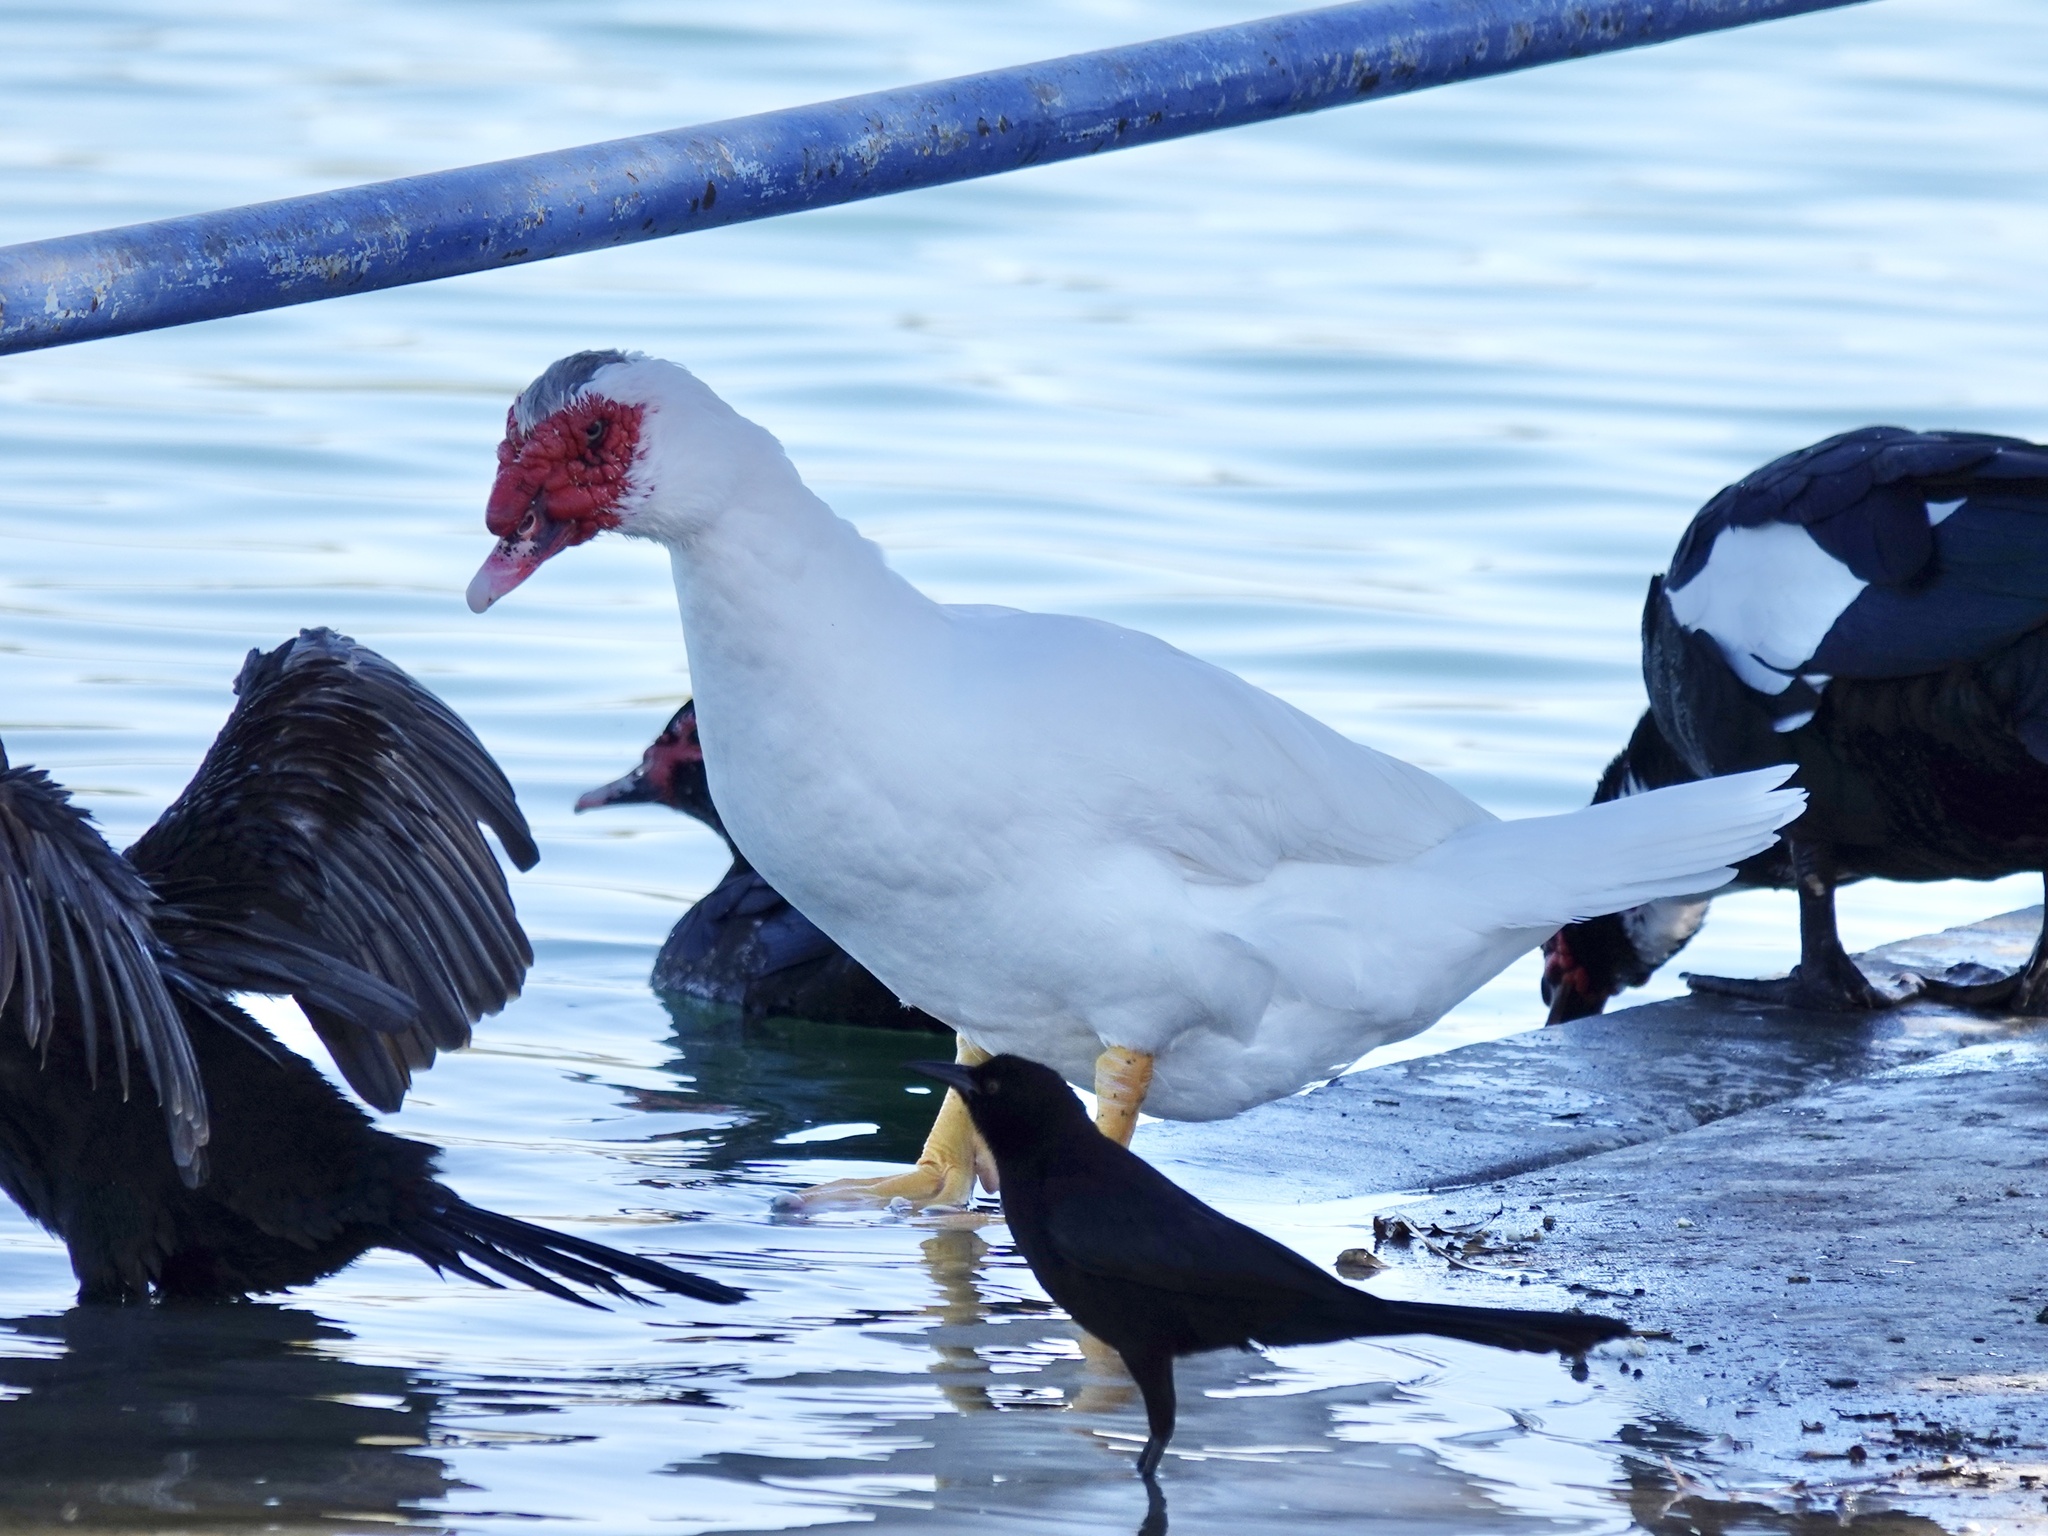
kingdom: Animalia
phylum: Chordata
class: Aves
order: Anseriformes
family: Anatidae
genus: Cairina
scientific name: Cairina moschata
